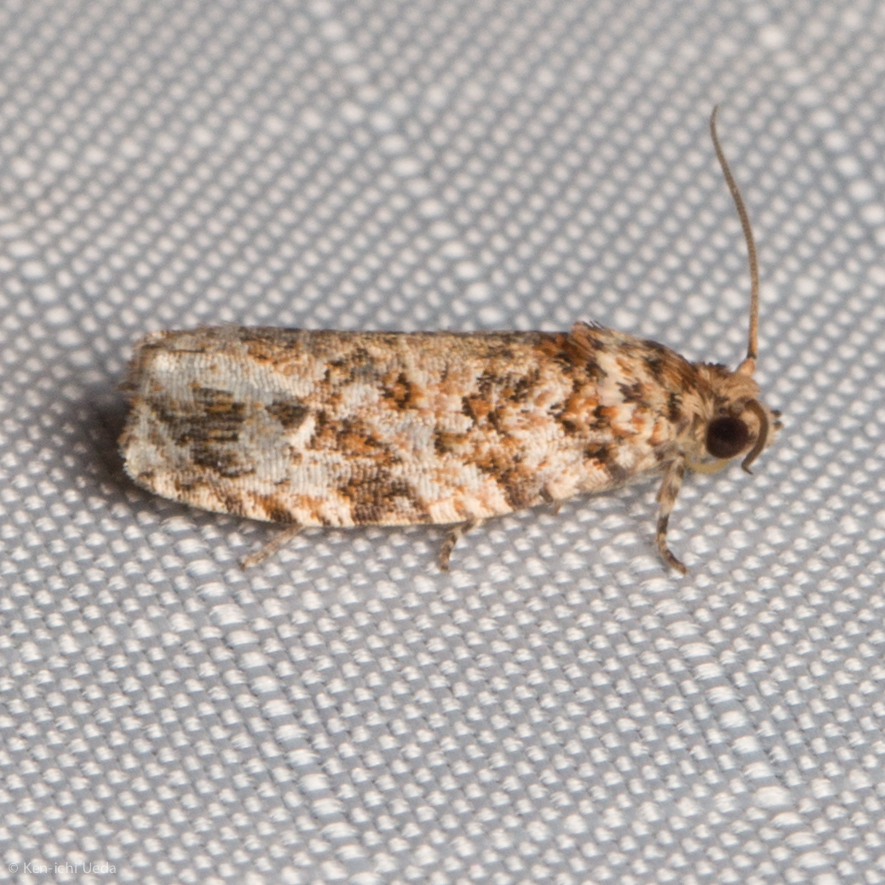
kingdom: Animalia
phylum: Arthropoda
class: Insecta
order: Lepidoptera
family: Tortricidae
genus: Phaecasiophora
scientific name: Phaecasiophora niveiguttana
